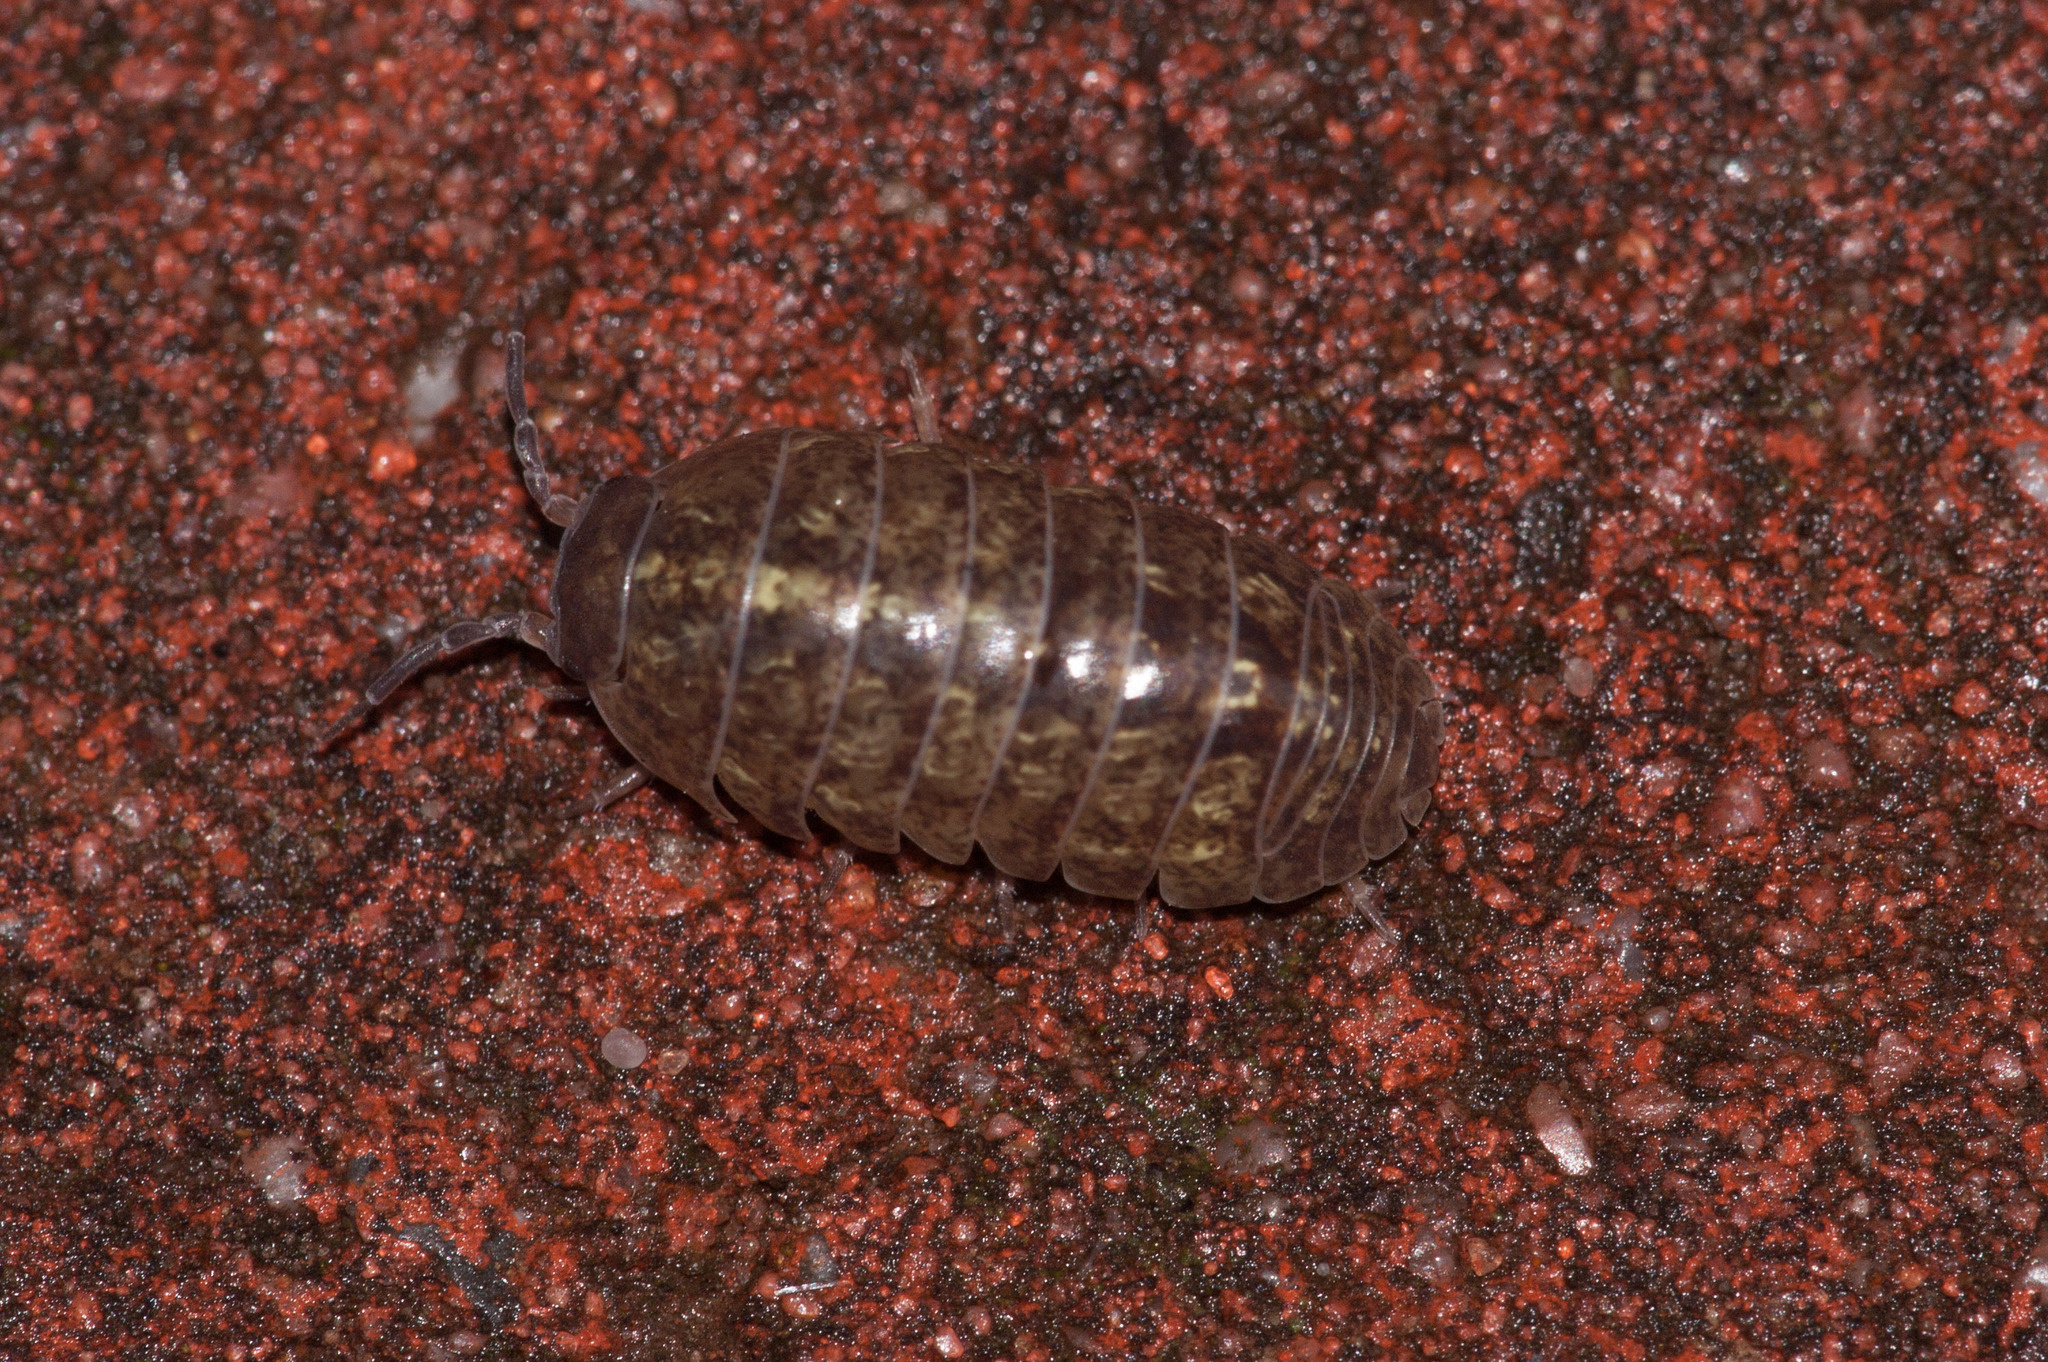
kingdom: Animalia
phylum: Arthropoda
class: Malacostraca
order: Isopoda
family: Armadillidiidae
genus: Armadillidium
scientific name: Armadillidium vulgare
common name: Common pill woodlouse
